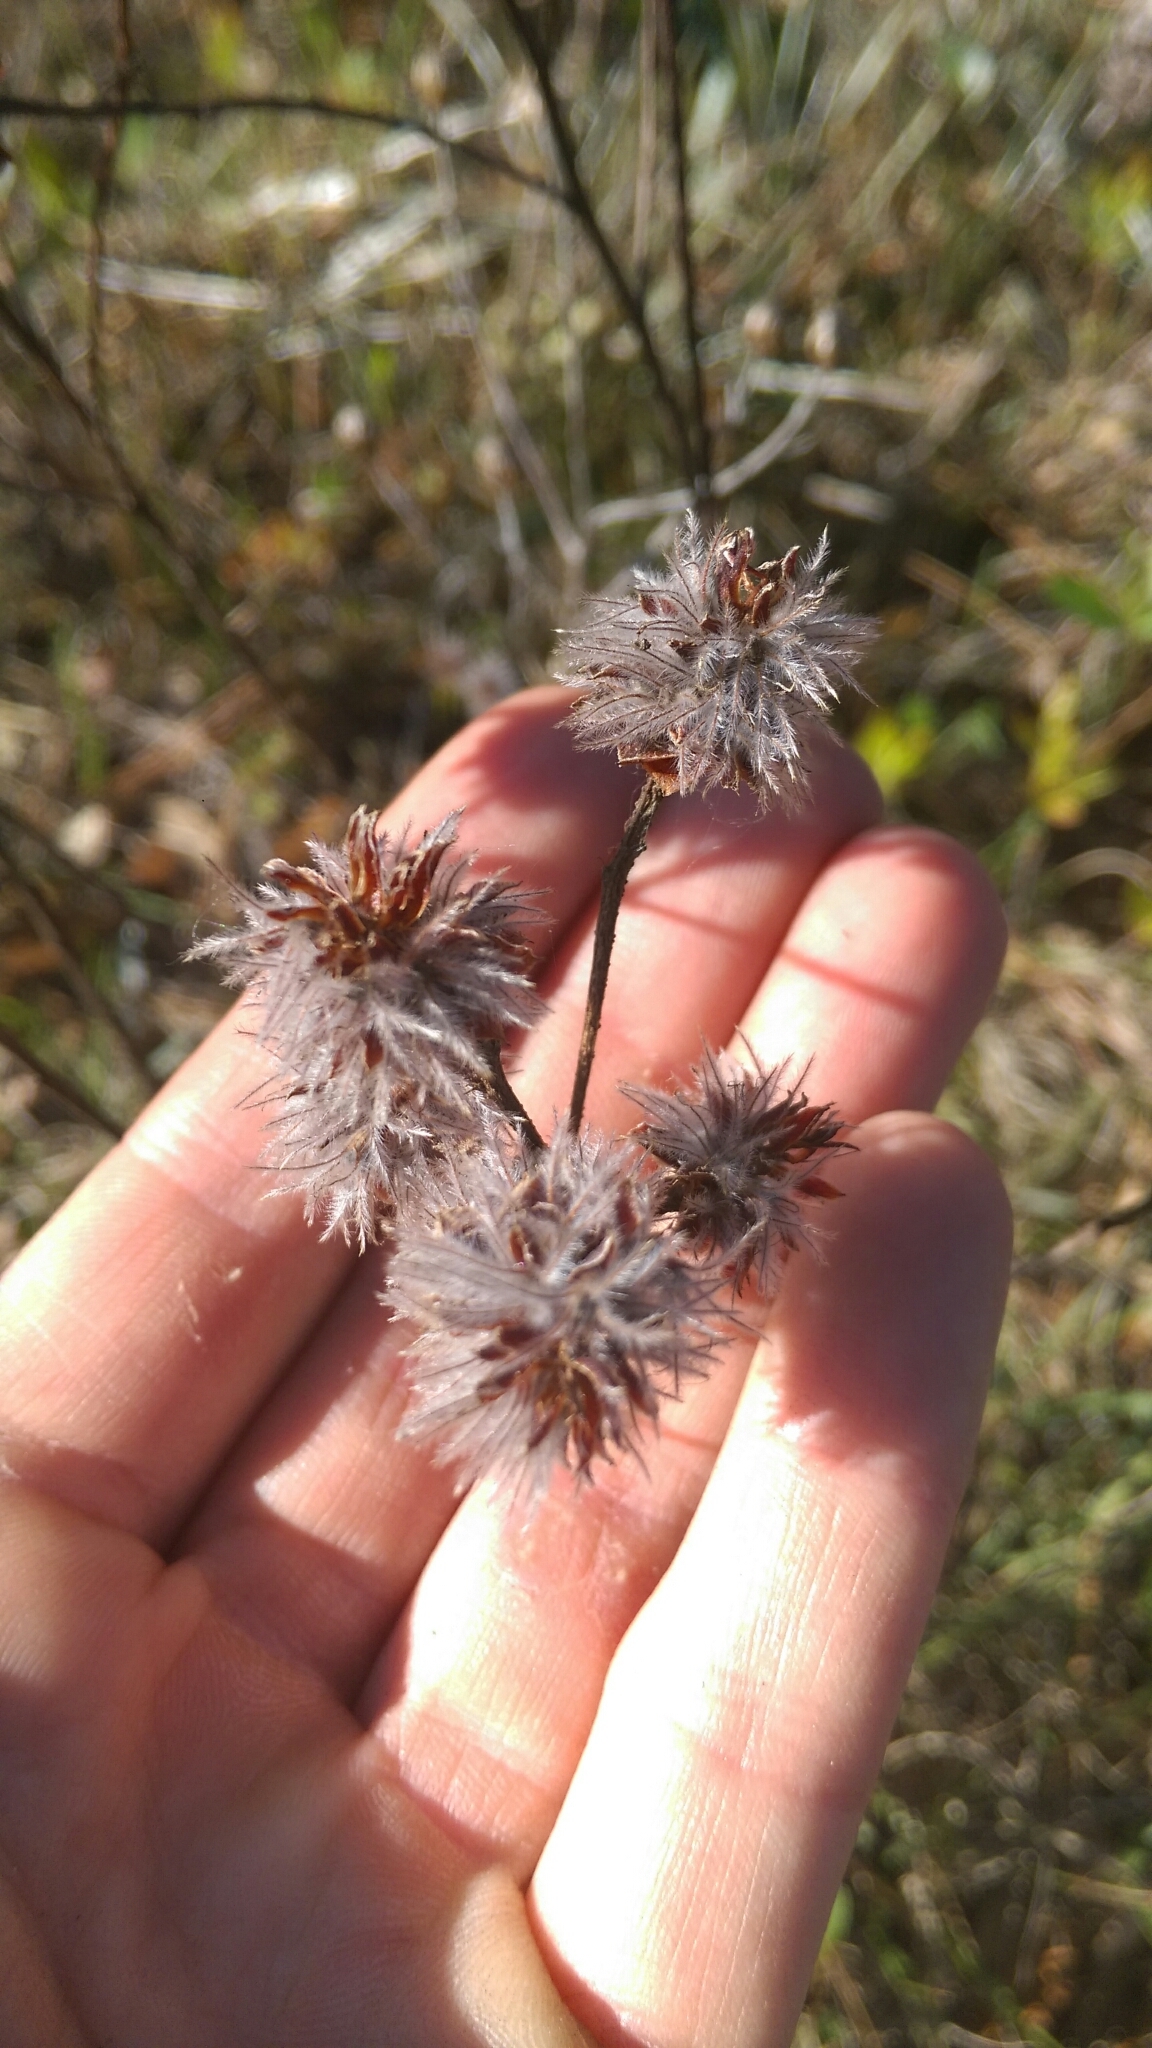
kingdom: Plantae
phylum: Tracheophyta
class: Magnoliopsida
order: Fabales
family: Fabaceae
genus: Dalea
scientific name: Dalea pinnata
